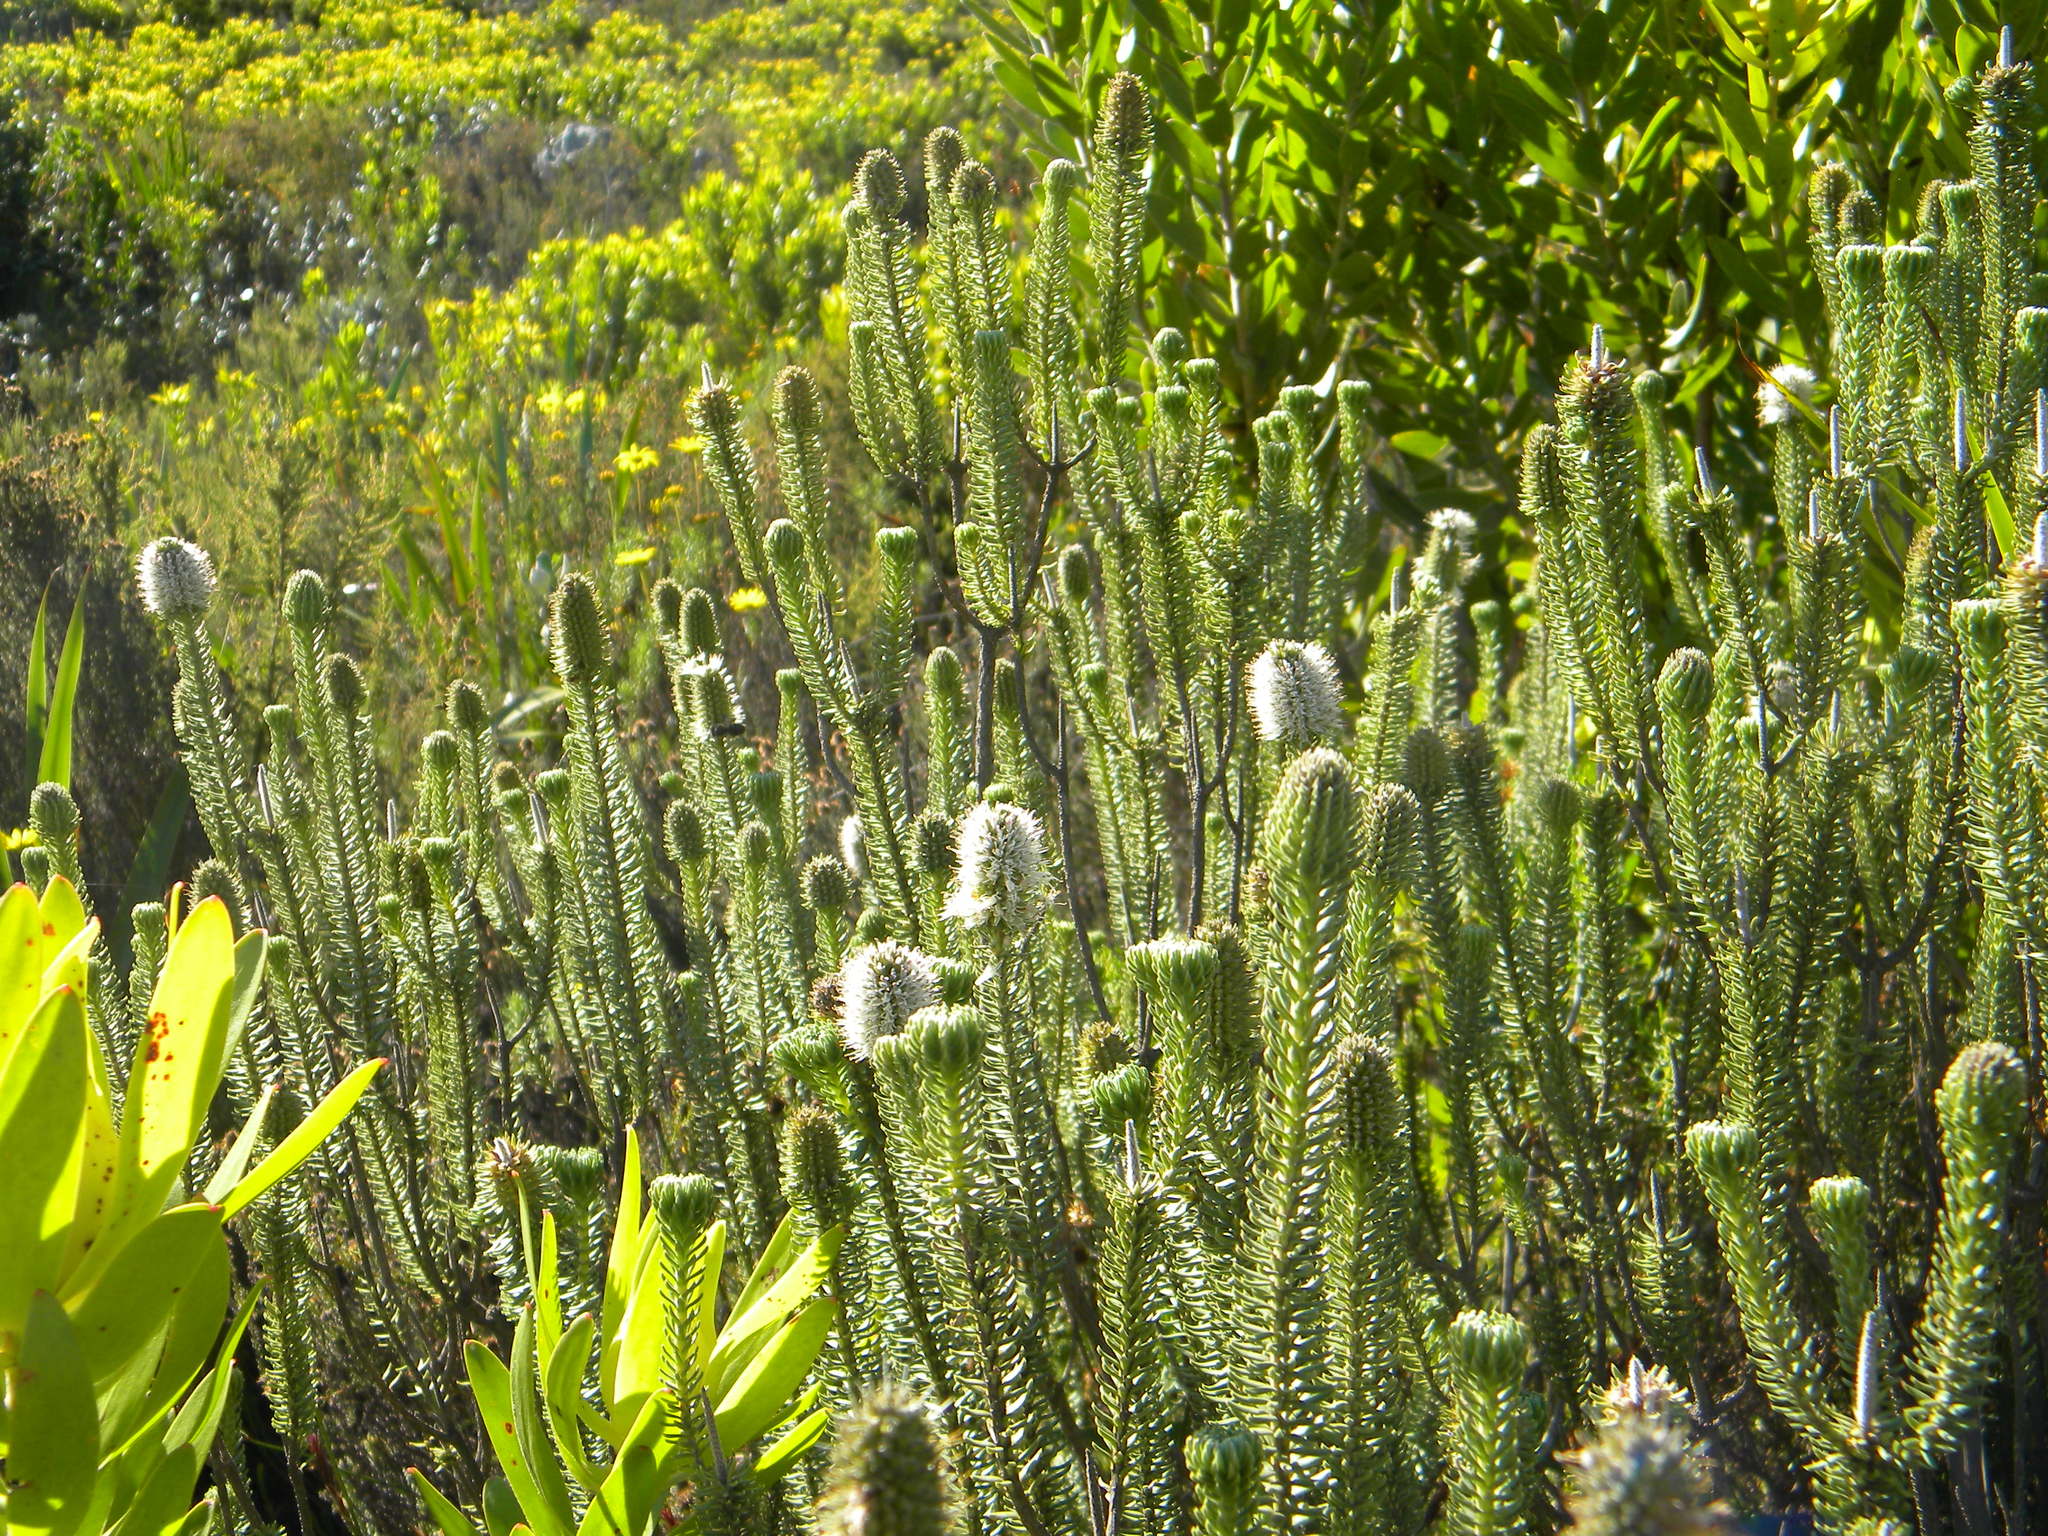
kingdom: Plantae
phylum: Tracheophyta
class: Magnoliopsida
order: Lamiales
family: Stilbaceae
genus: Stilbe
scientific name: Stilbe vestita
